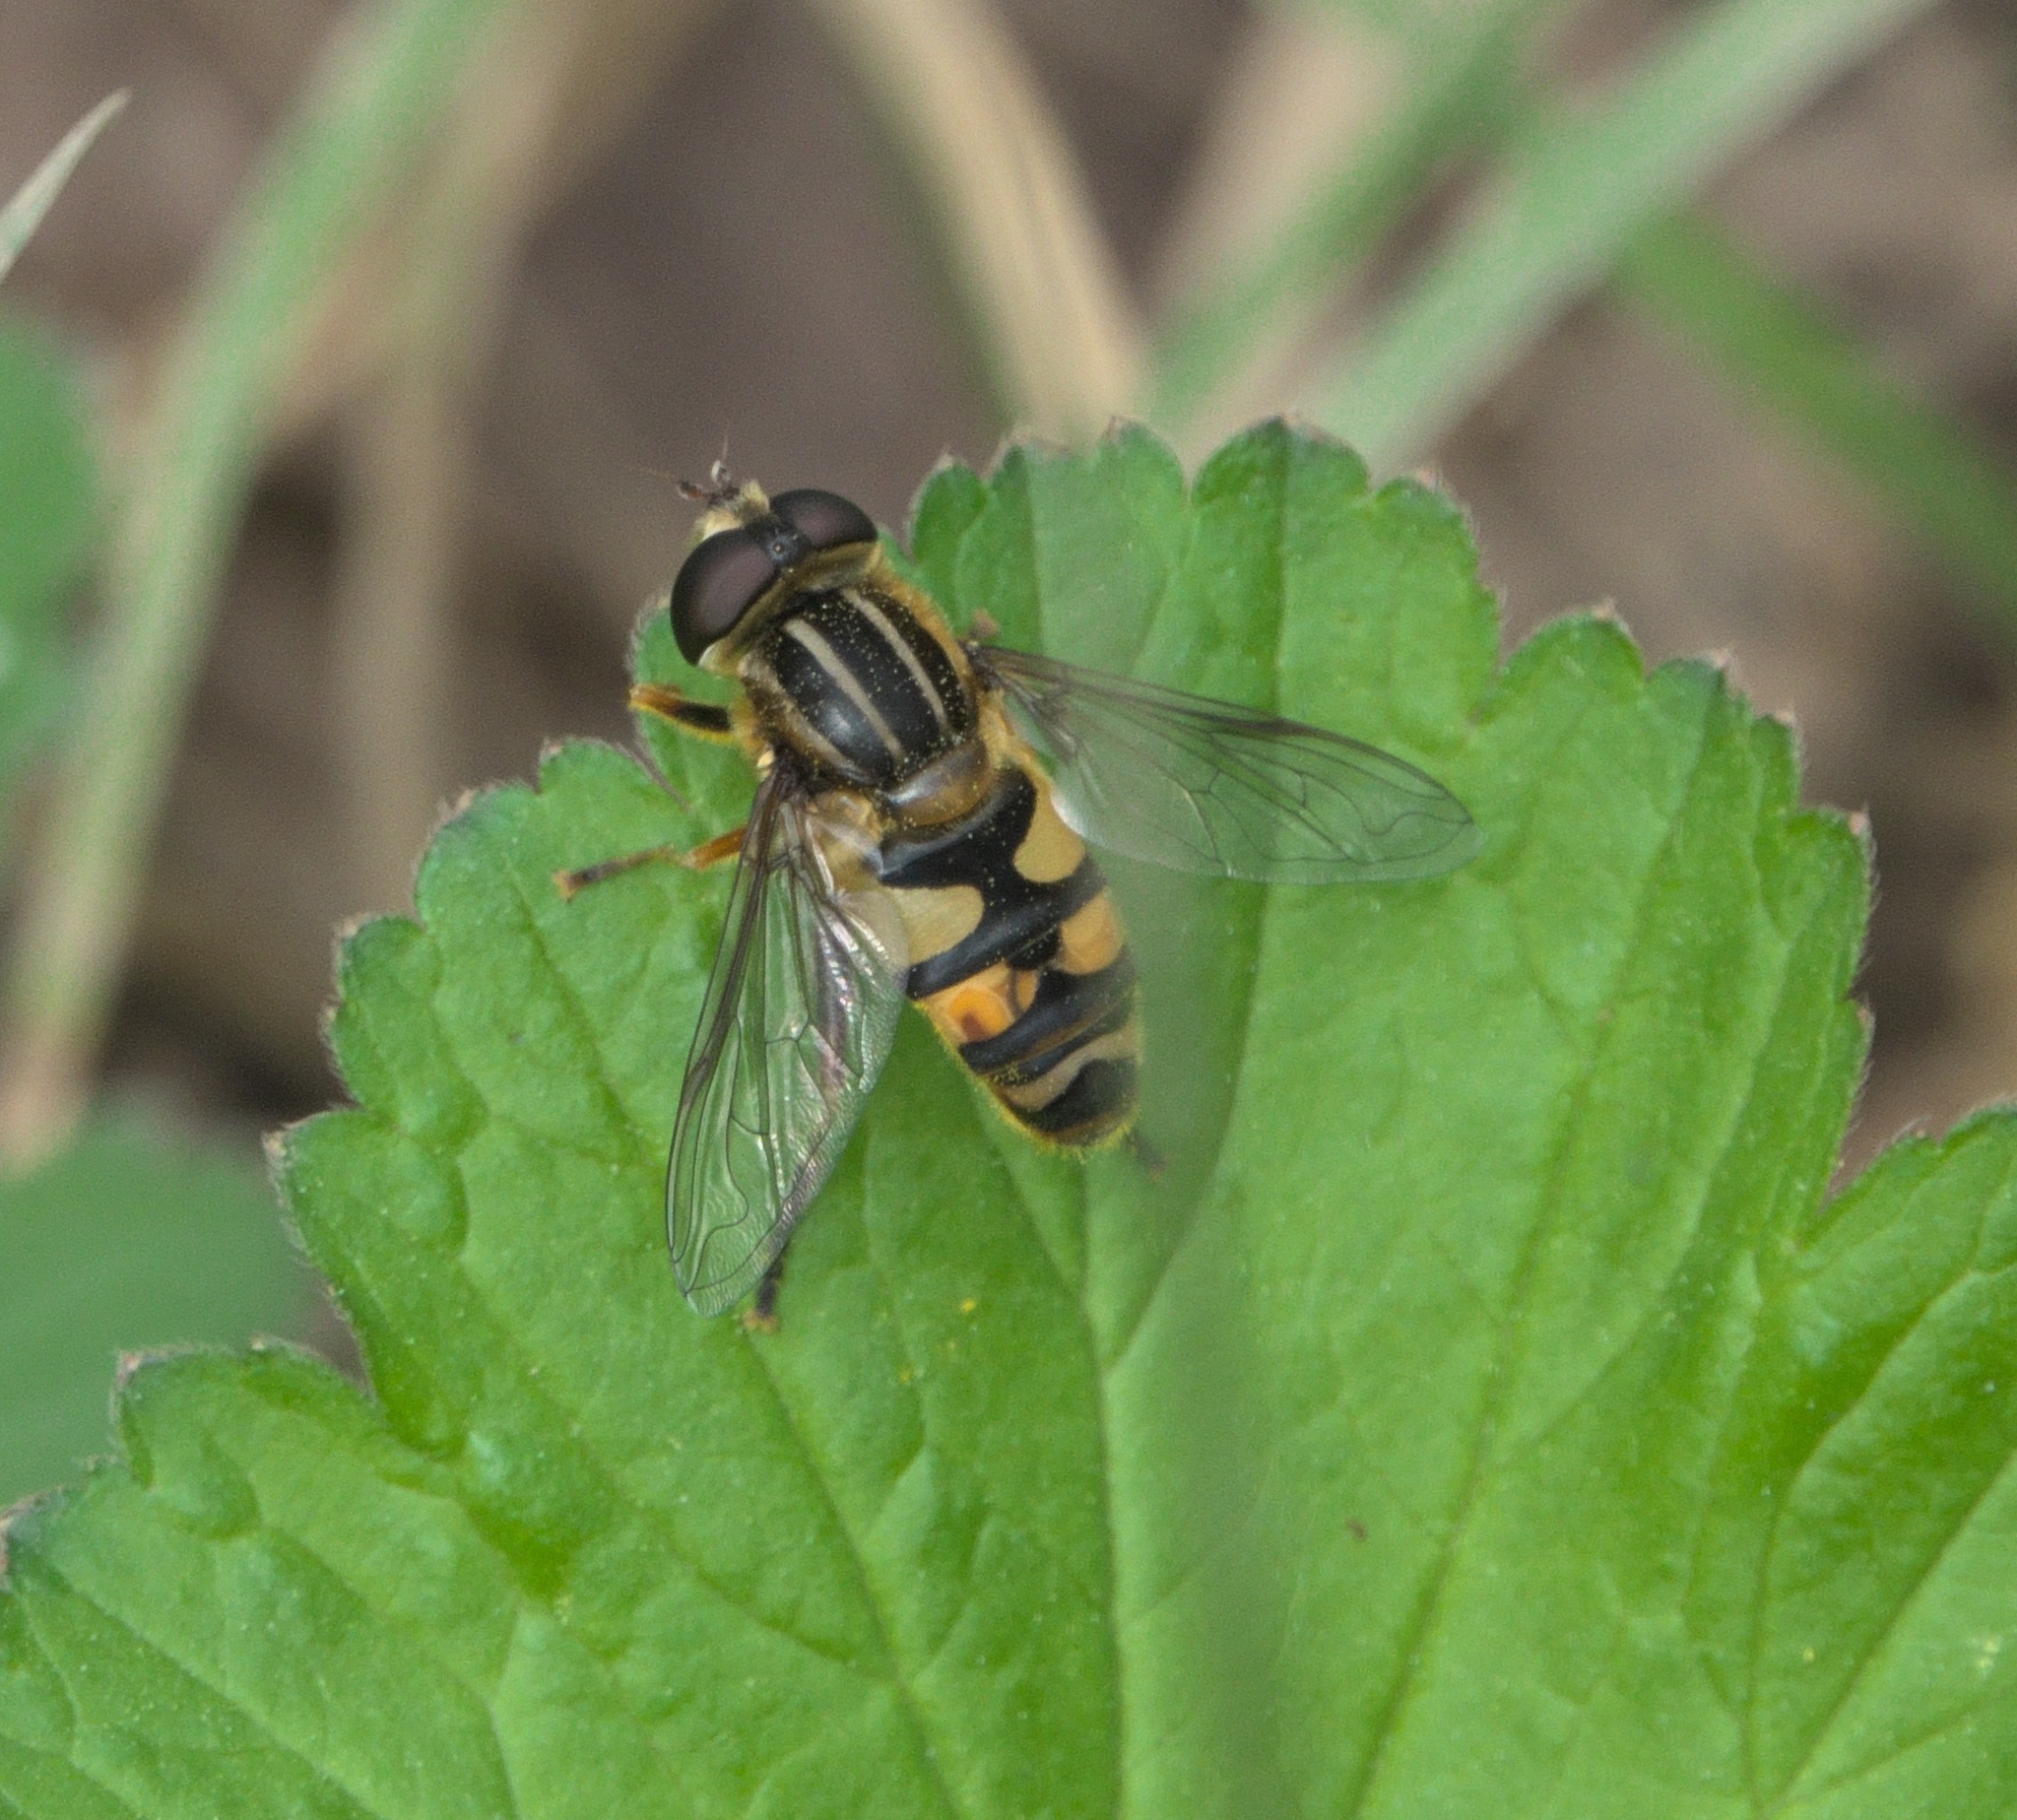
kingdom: Animalia
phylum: Arthropoda
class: Insecta
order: Diptera
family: Syrphidae
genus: Helophilus
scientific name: Helophilus fasciatus
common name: Narrow-headed marsh fly
